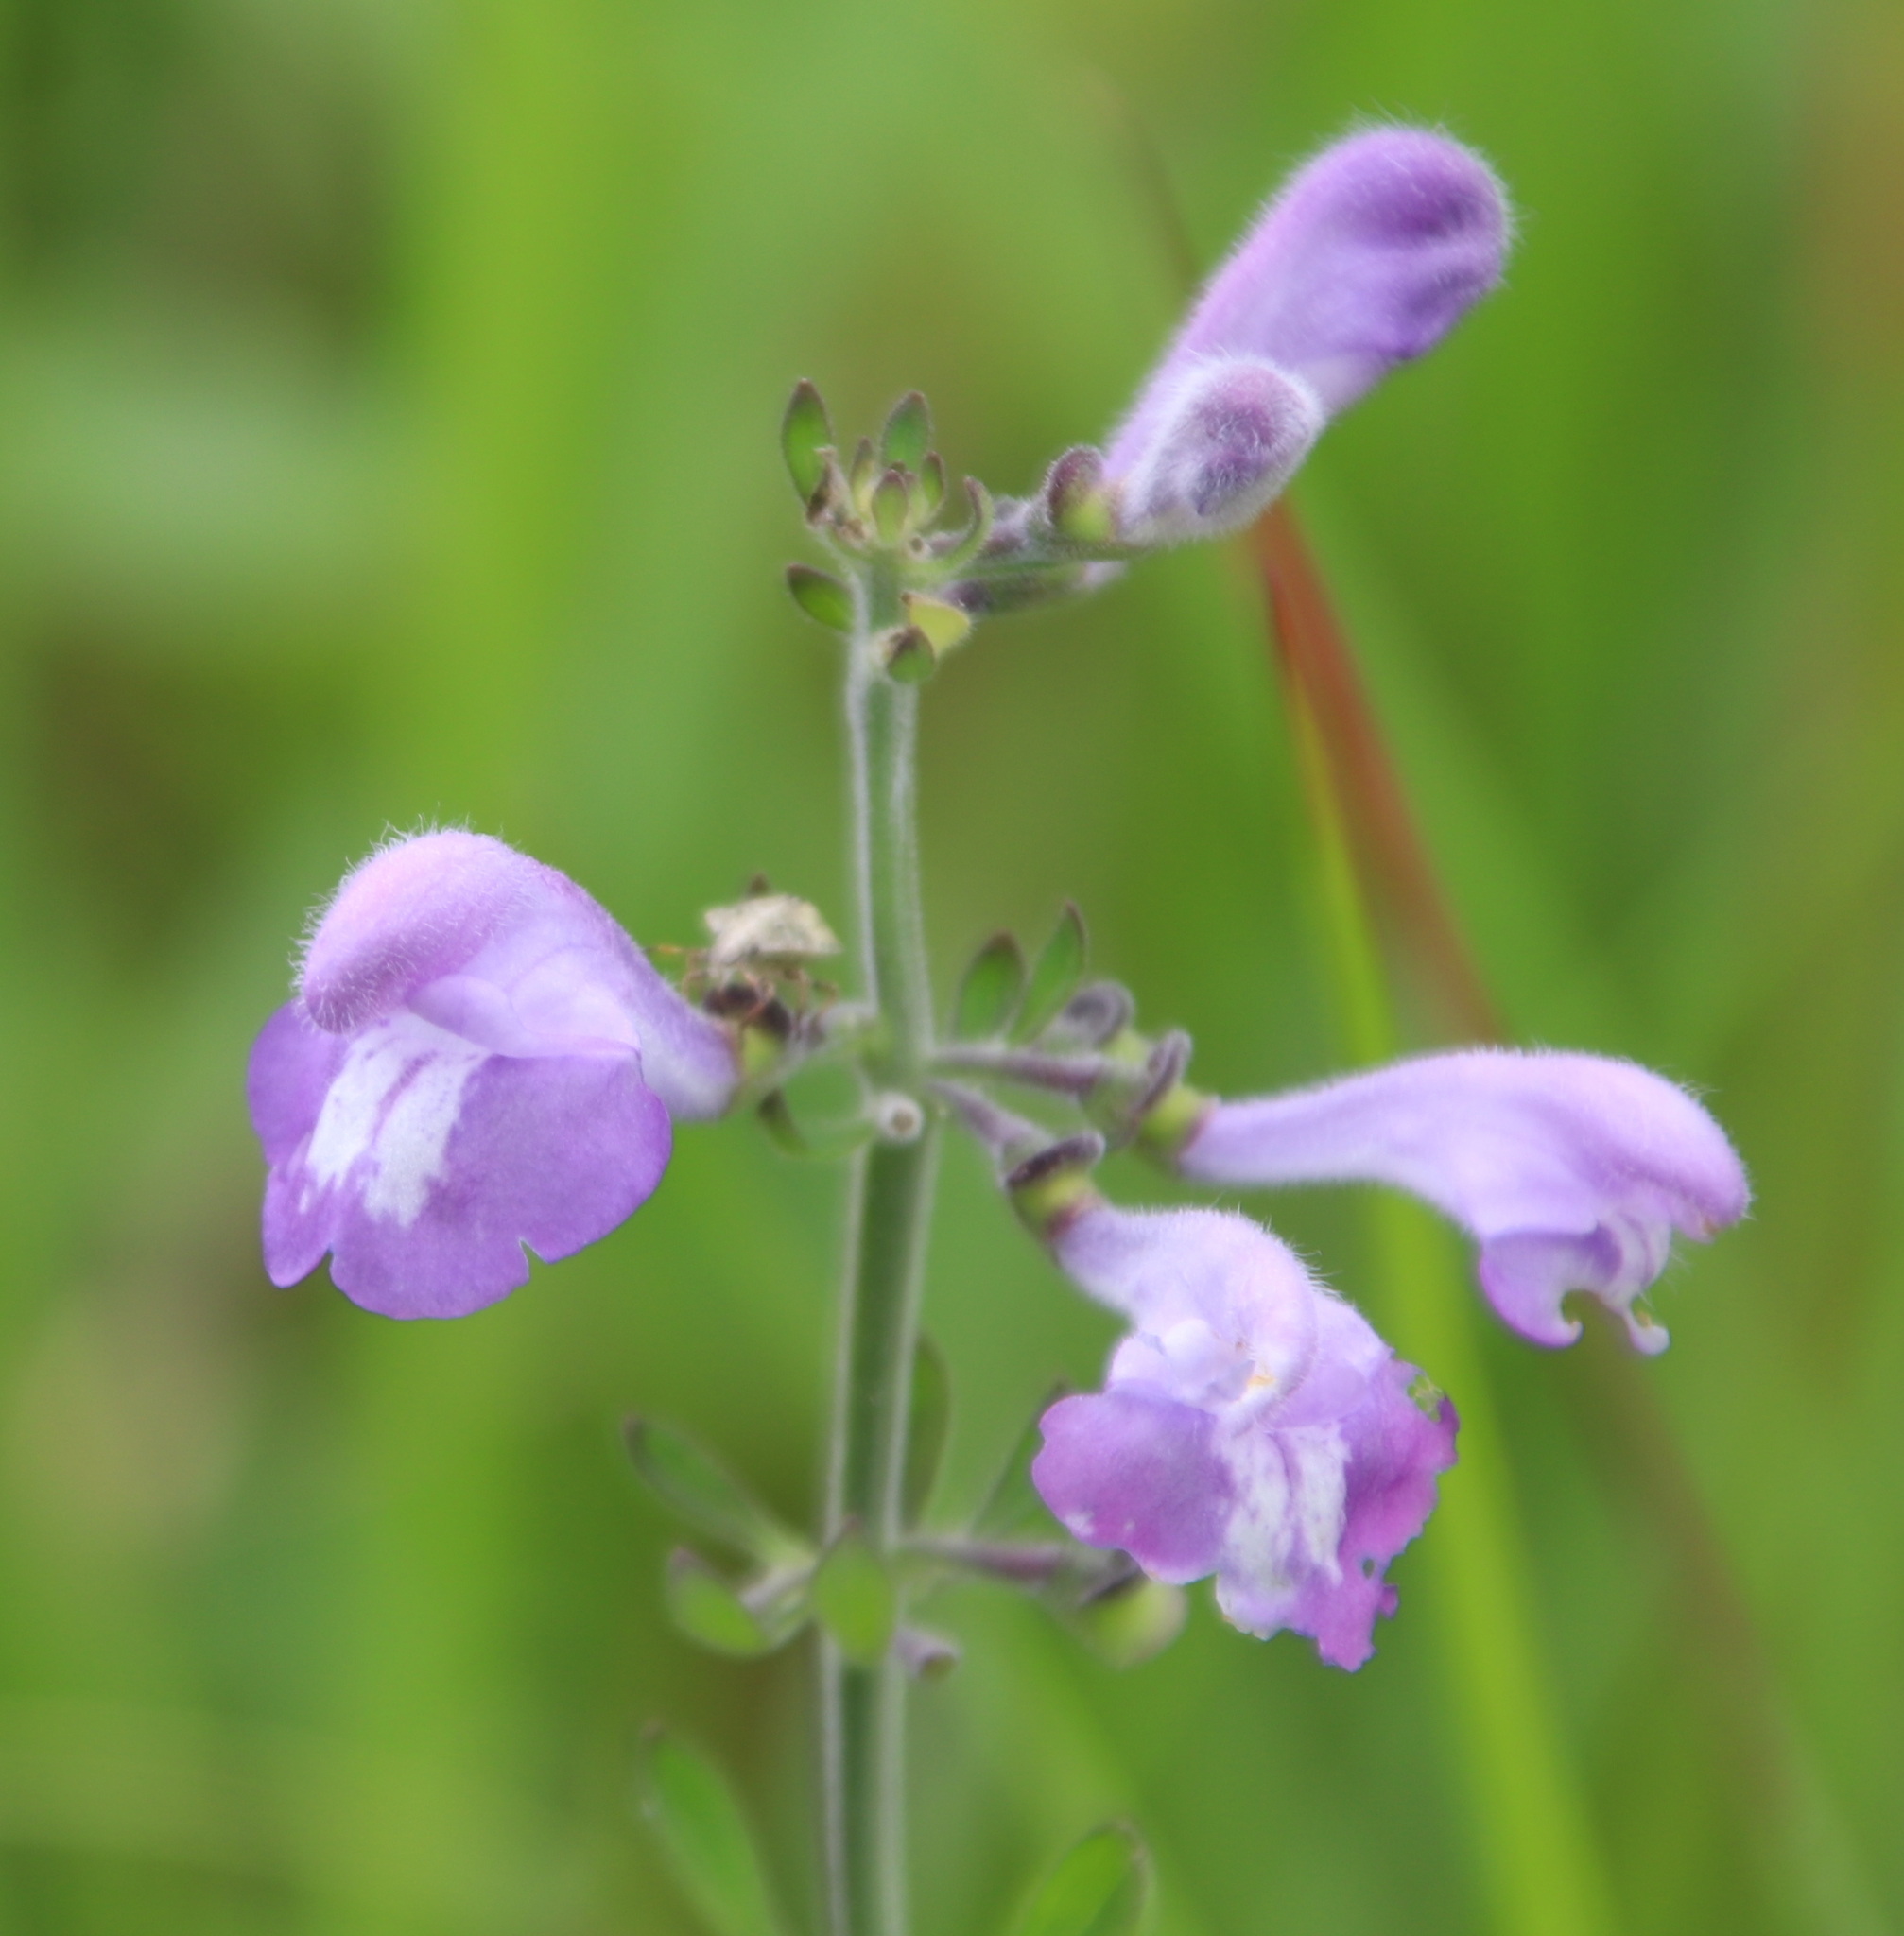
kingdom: Plantae
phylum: Tracheophyta
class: Magnoliopsida
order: Lamiales
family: Lamiaceae
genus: Scutellaria
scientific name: Scutellaria integrifolia
